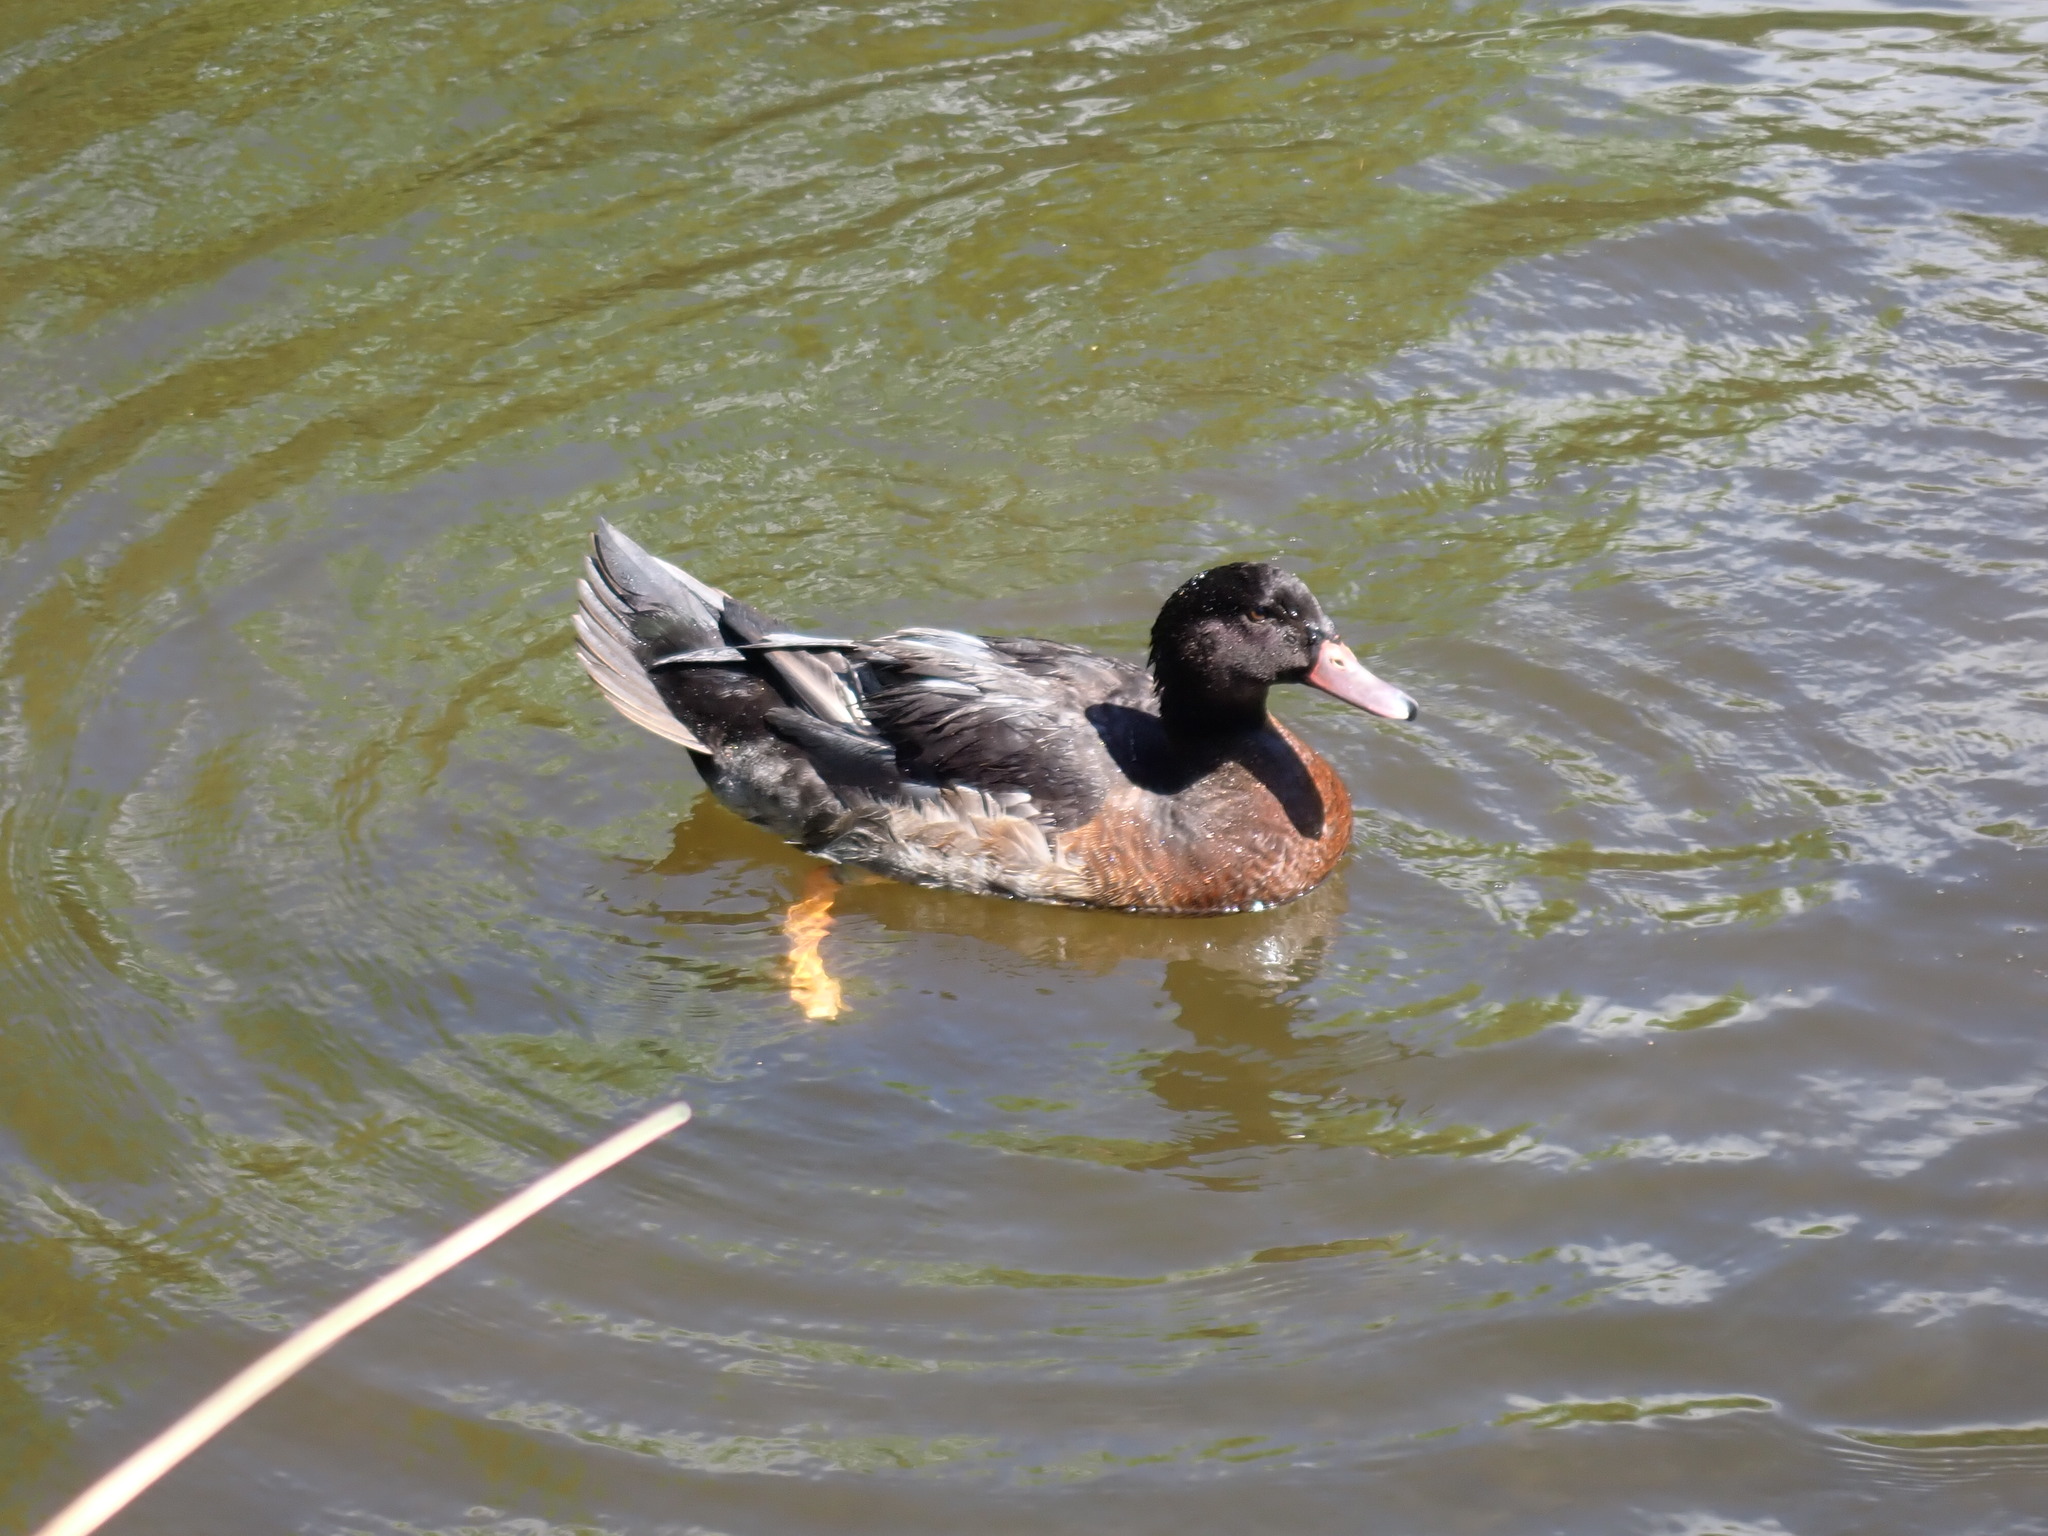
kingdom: Animalia
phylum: Chordata
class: Aves
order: Anseriformes
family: Anatidae
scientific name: Anatidae
